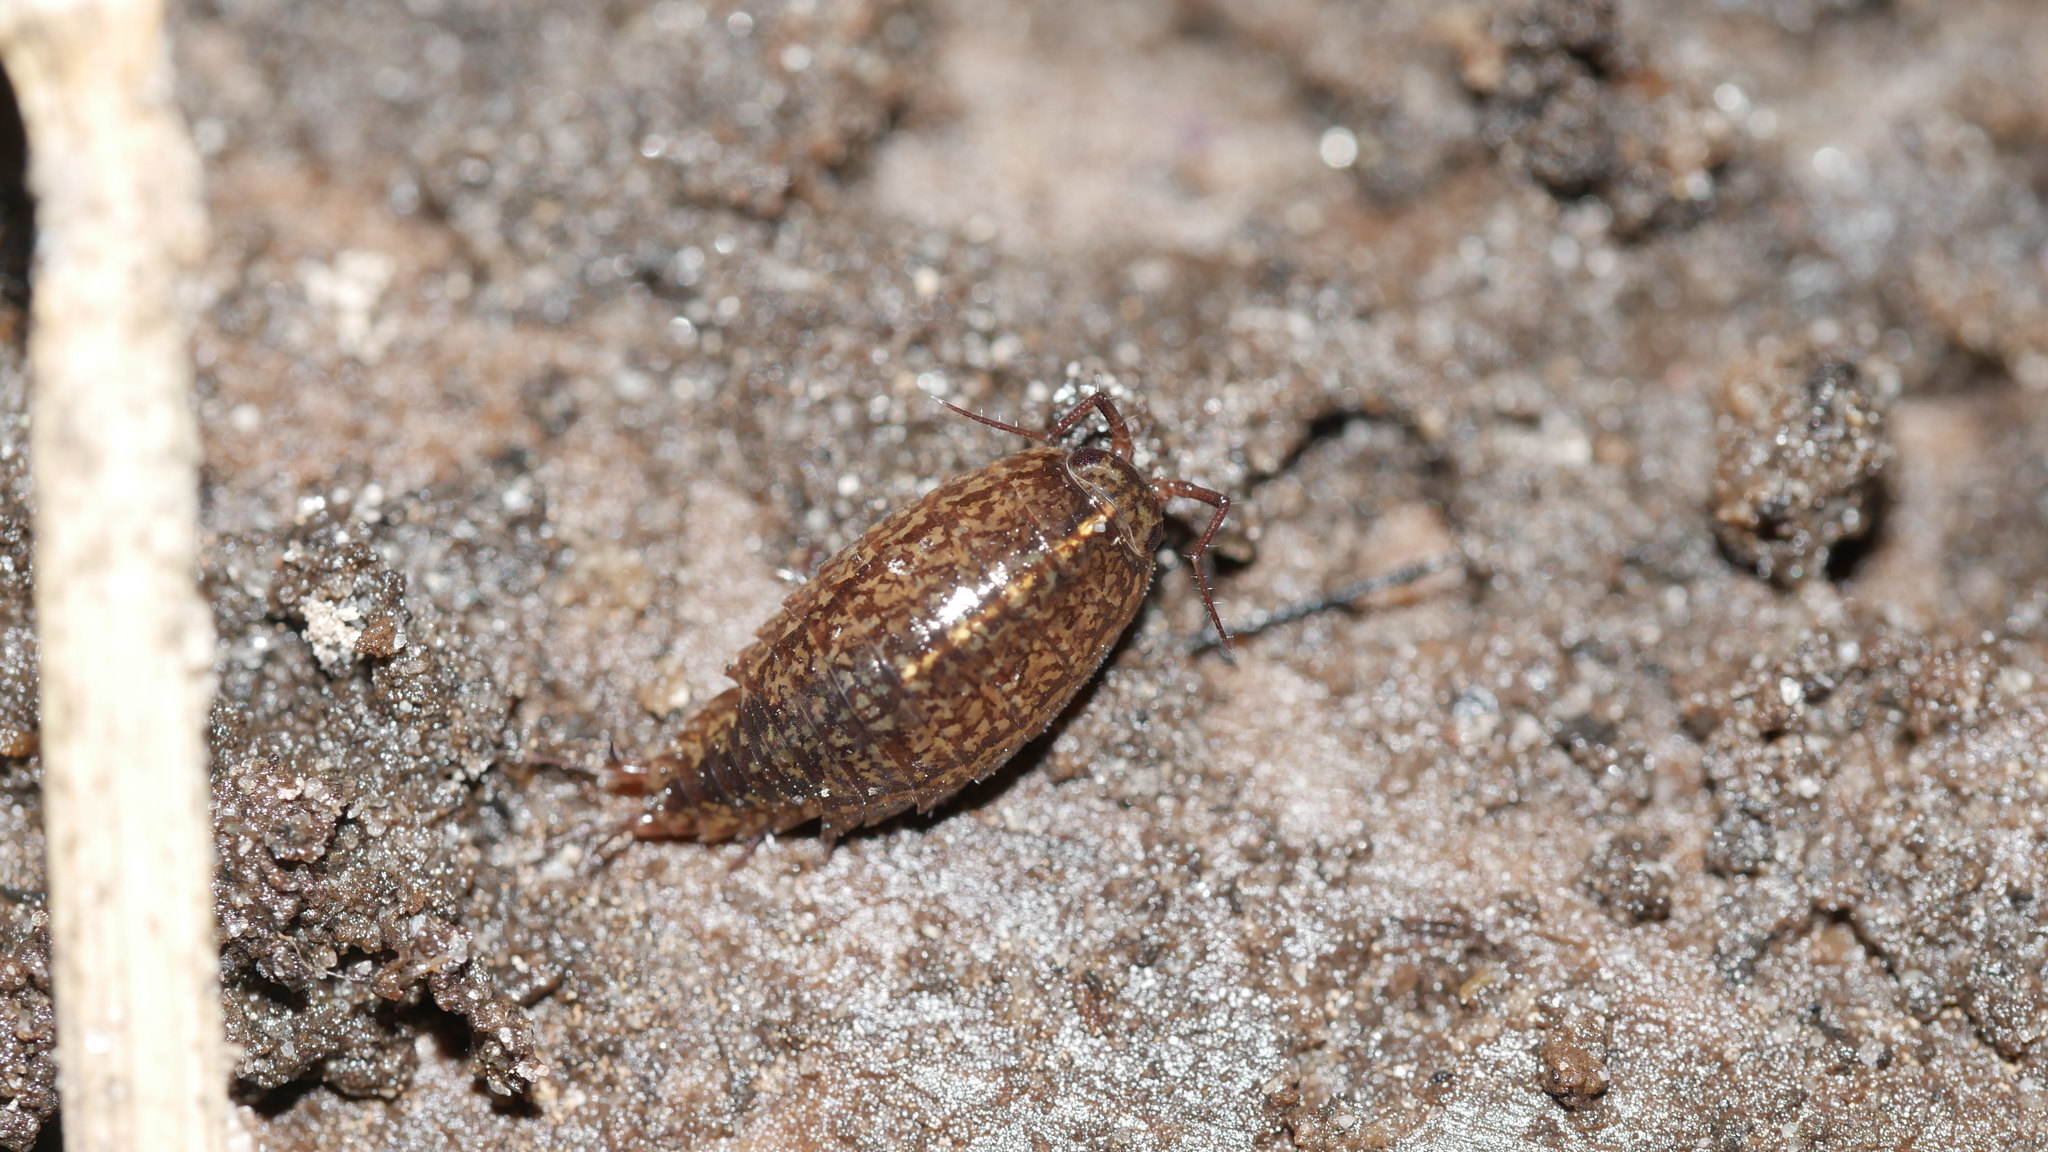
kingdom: Animalia
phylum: Arthropoda
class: Malacostraca
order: Isopoda
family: Ligiidae
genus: Ligidium
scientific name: Ligidium elrodii
